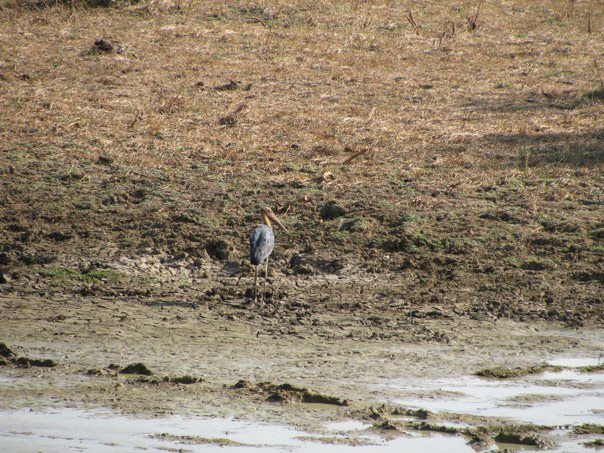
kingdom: Animalia
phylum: Chordata
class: Aves
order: Ciconiiformes
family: Ciconiidae
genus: Leptoptilos
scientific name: Leptoptilos javanicus
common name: Lesser adjutant
